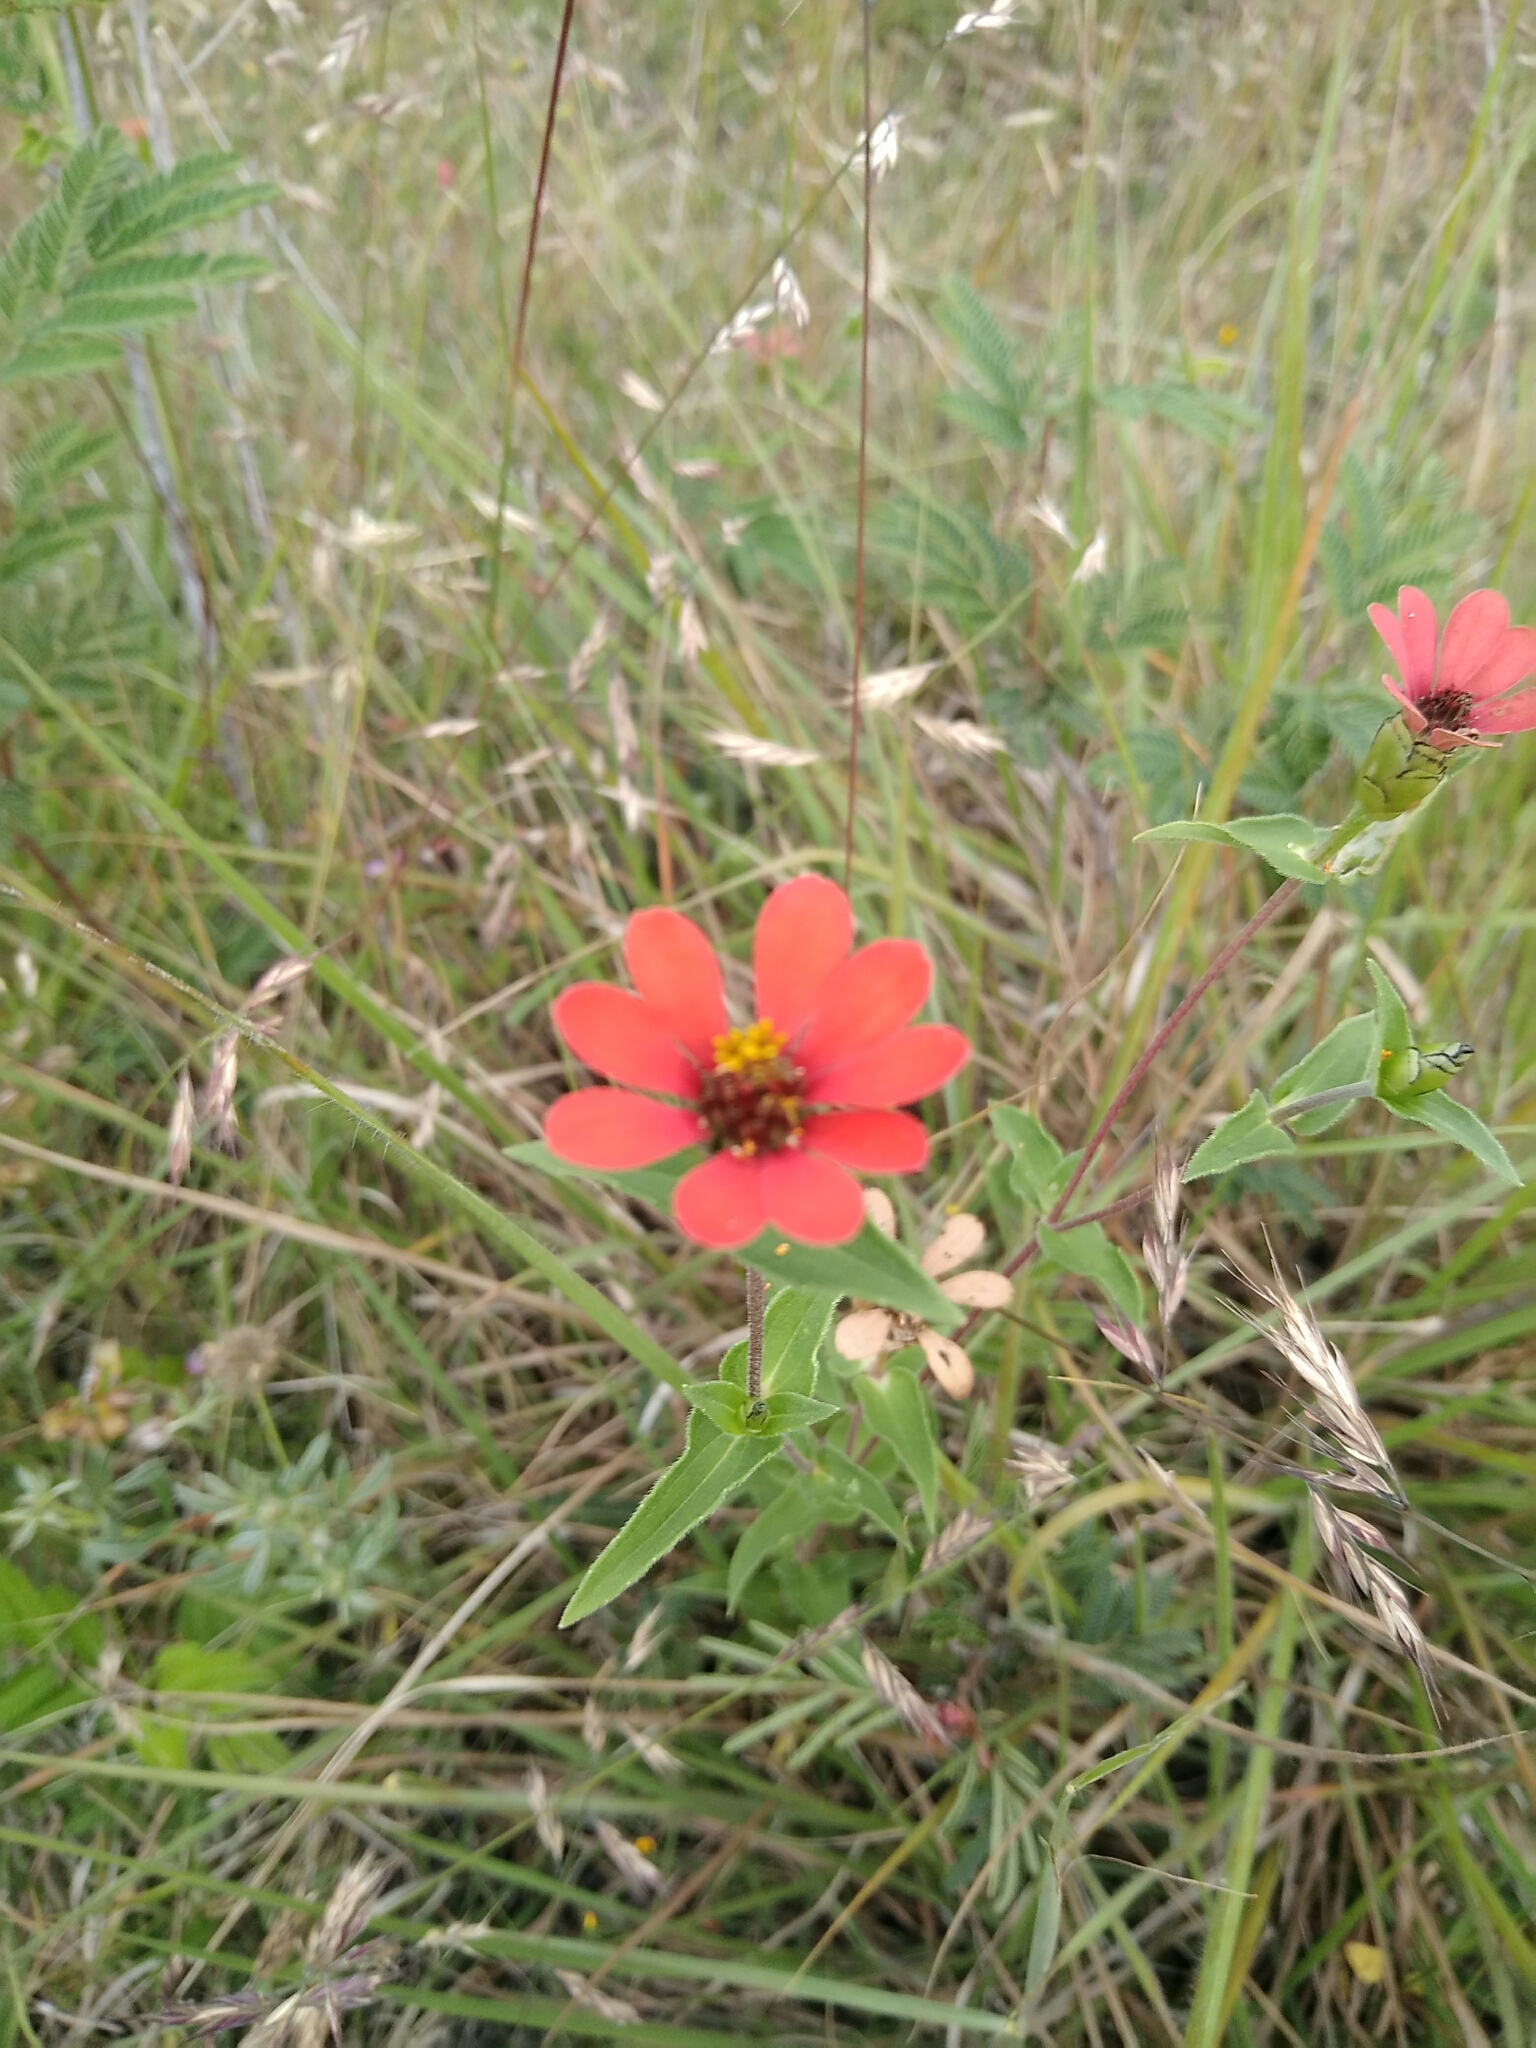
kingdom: Plantae
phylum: Tracheophyta
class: Magnoliopsida
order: Asterales
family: Asteraceae
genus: Zinnia
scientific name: Zinnia peruviana
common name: Peruvian zinnia
